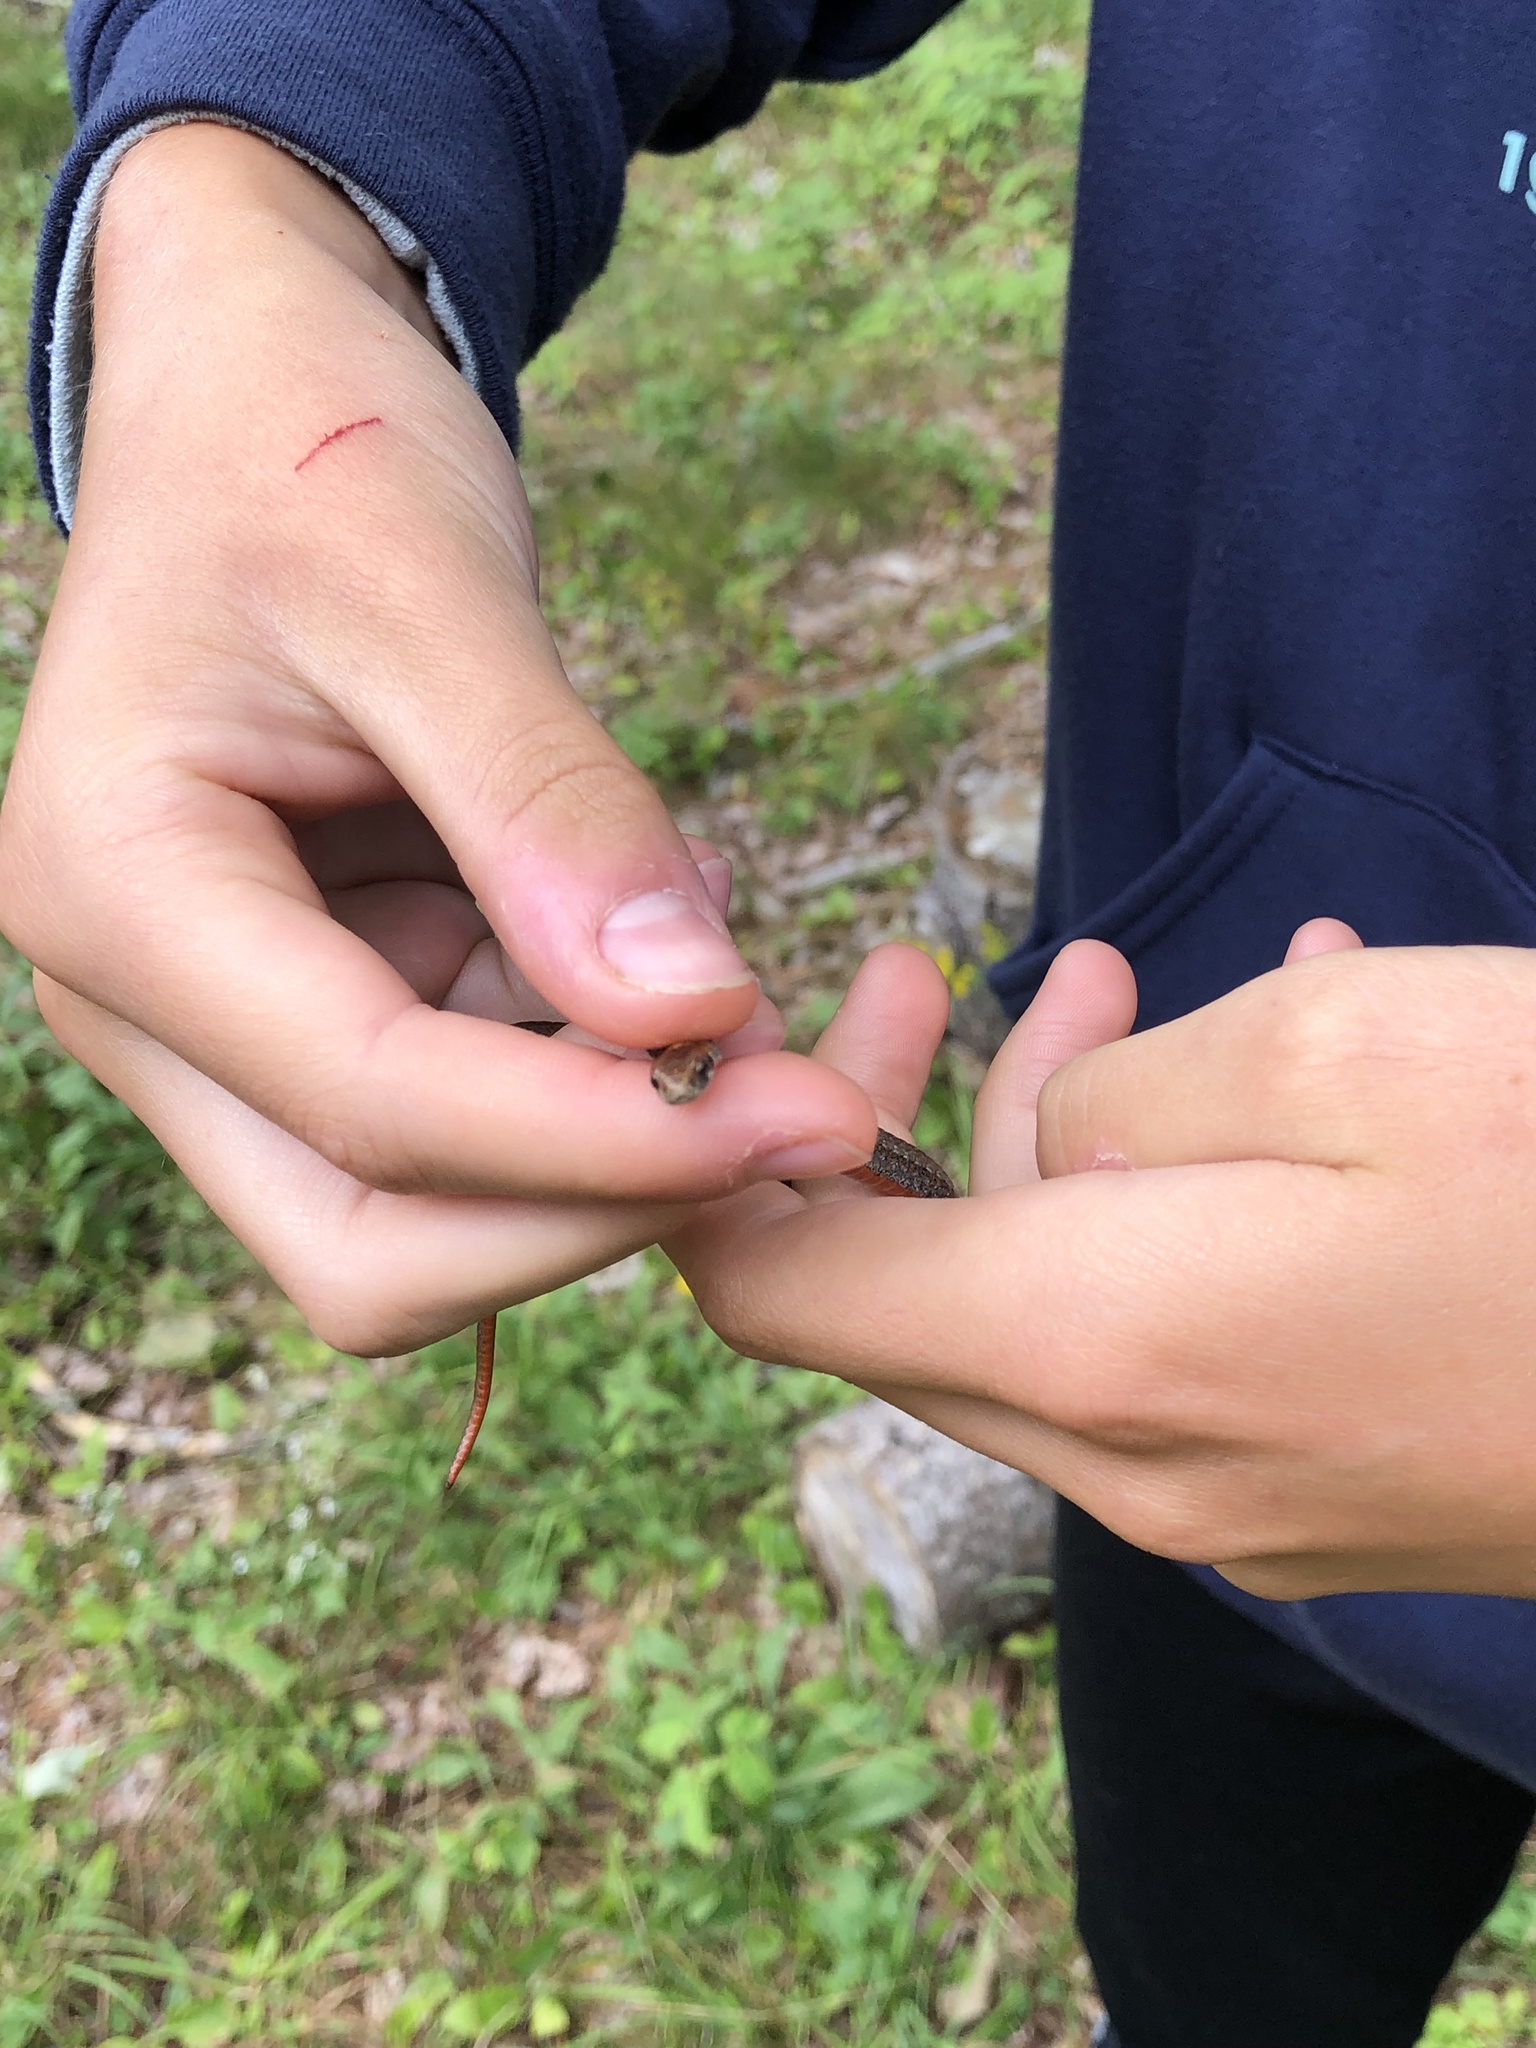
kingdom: Animalia
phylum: Chordata
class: Squamata
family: Colubridae
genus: Storeria
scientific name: Storeria occipitomaculata
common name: Redbelly snake
